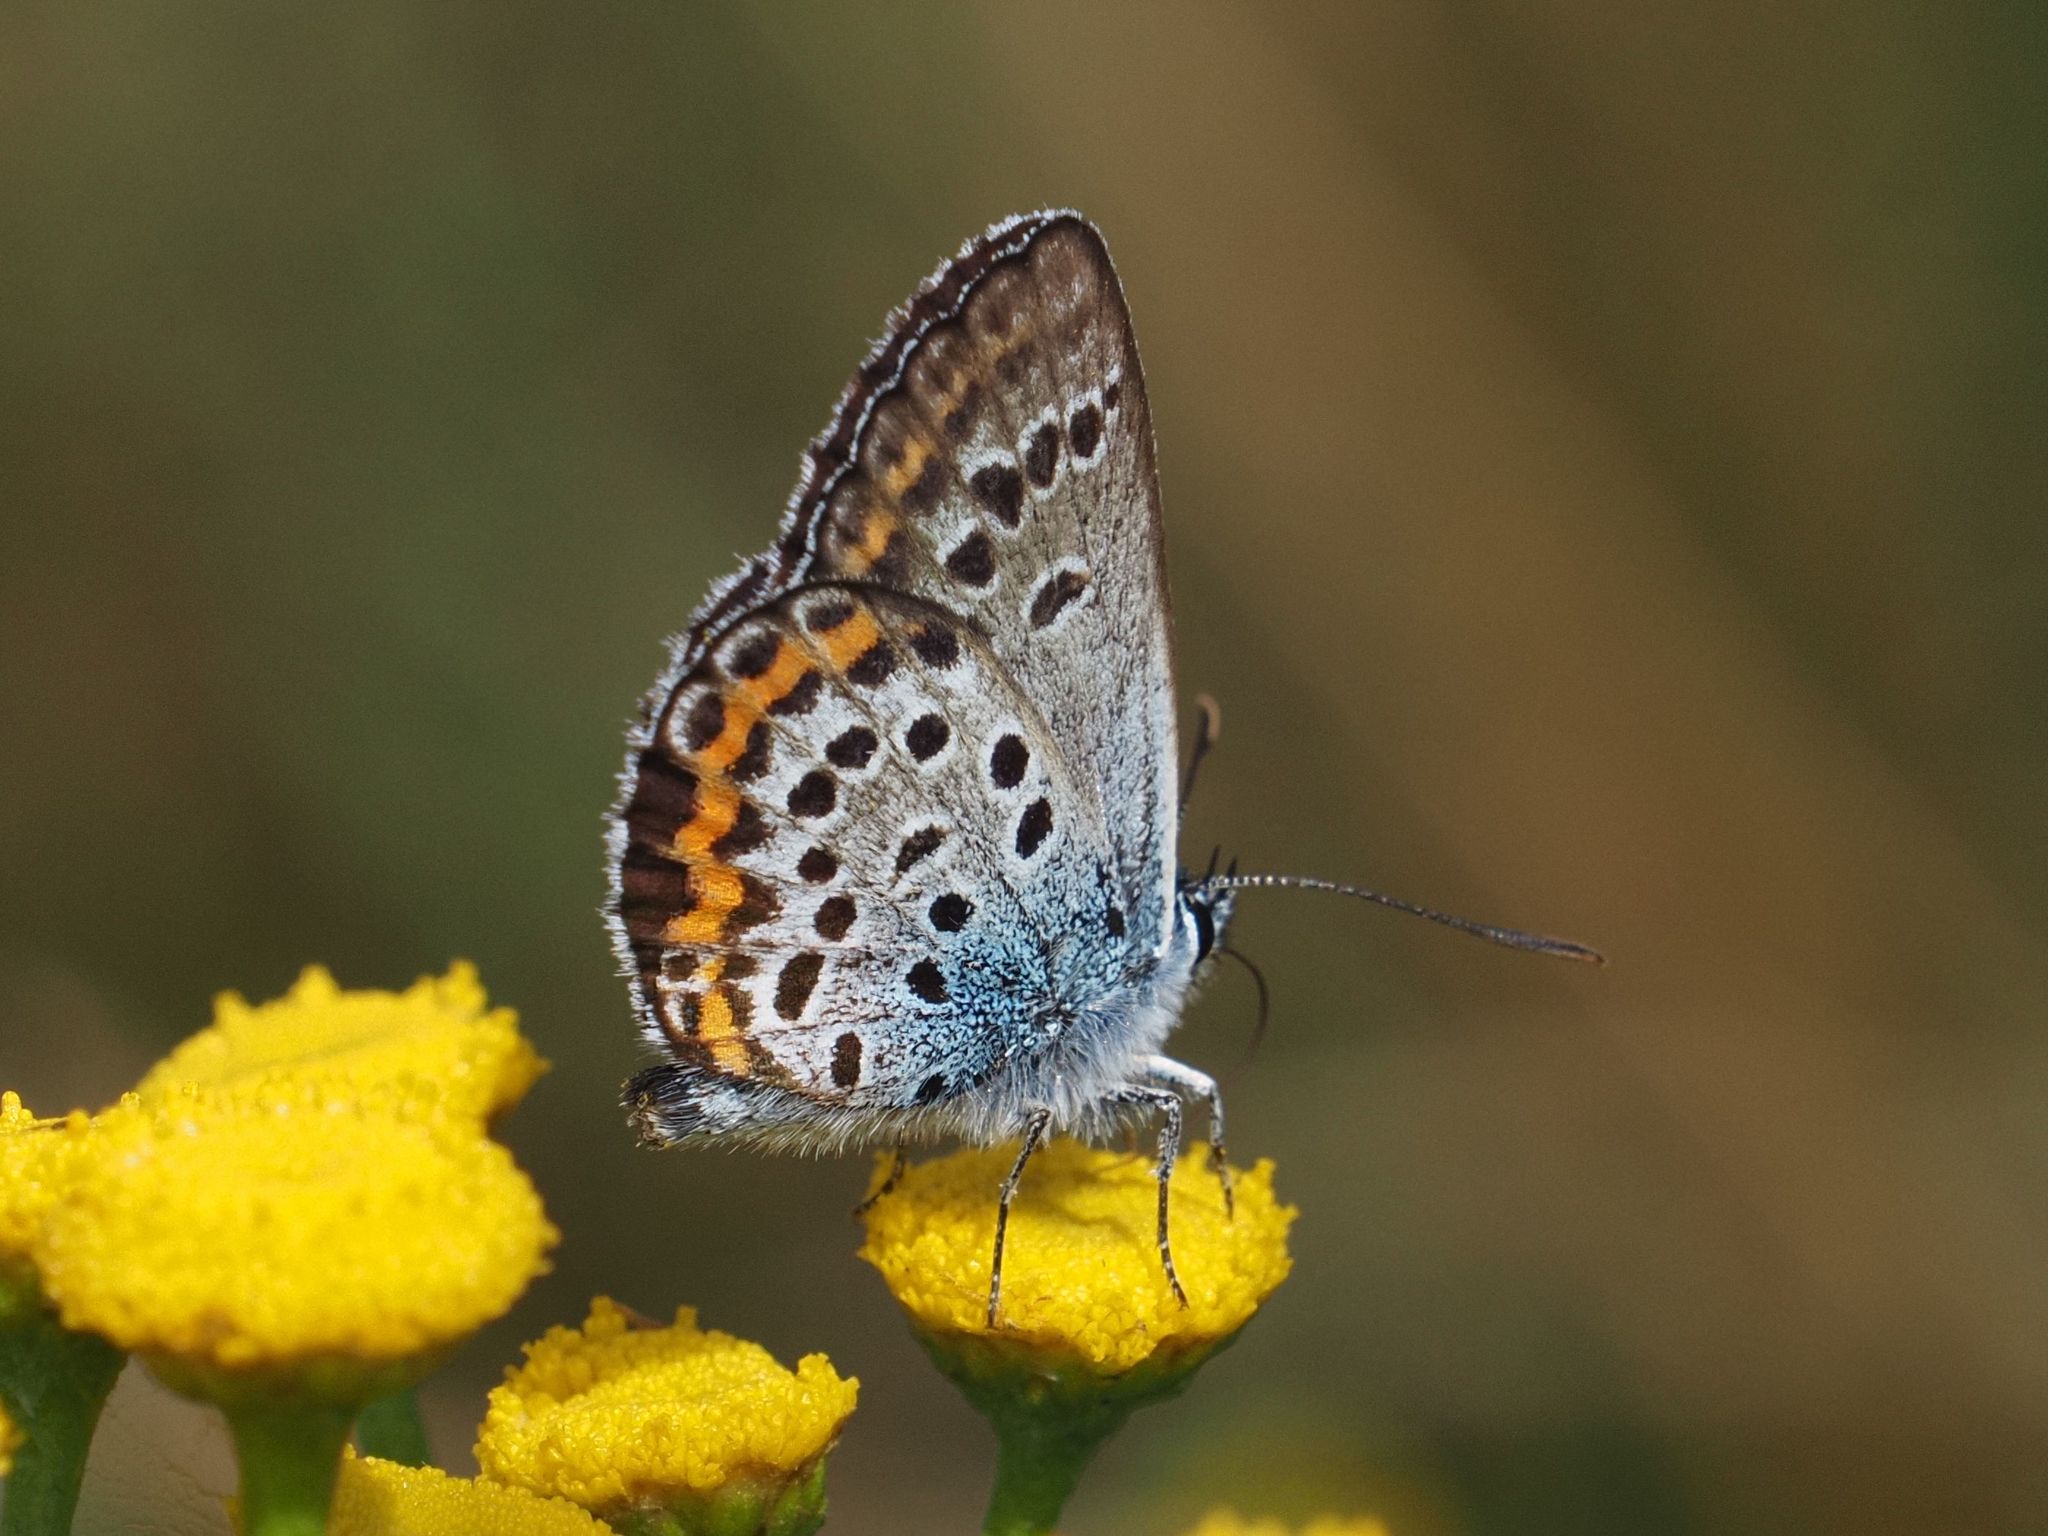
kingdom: Animalia
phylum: Arthropoda
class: Insecta
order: Lepidoptera
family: Lycaenidae
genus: Plebejus
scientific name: Plebejus argus
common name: Silver-studded blue
